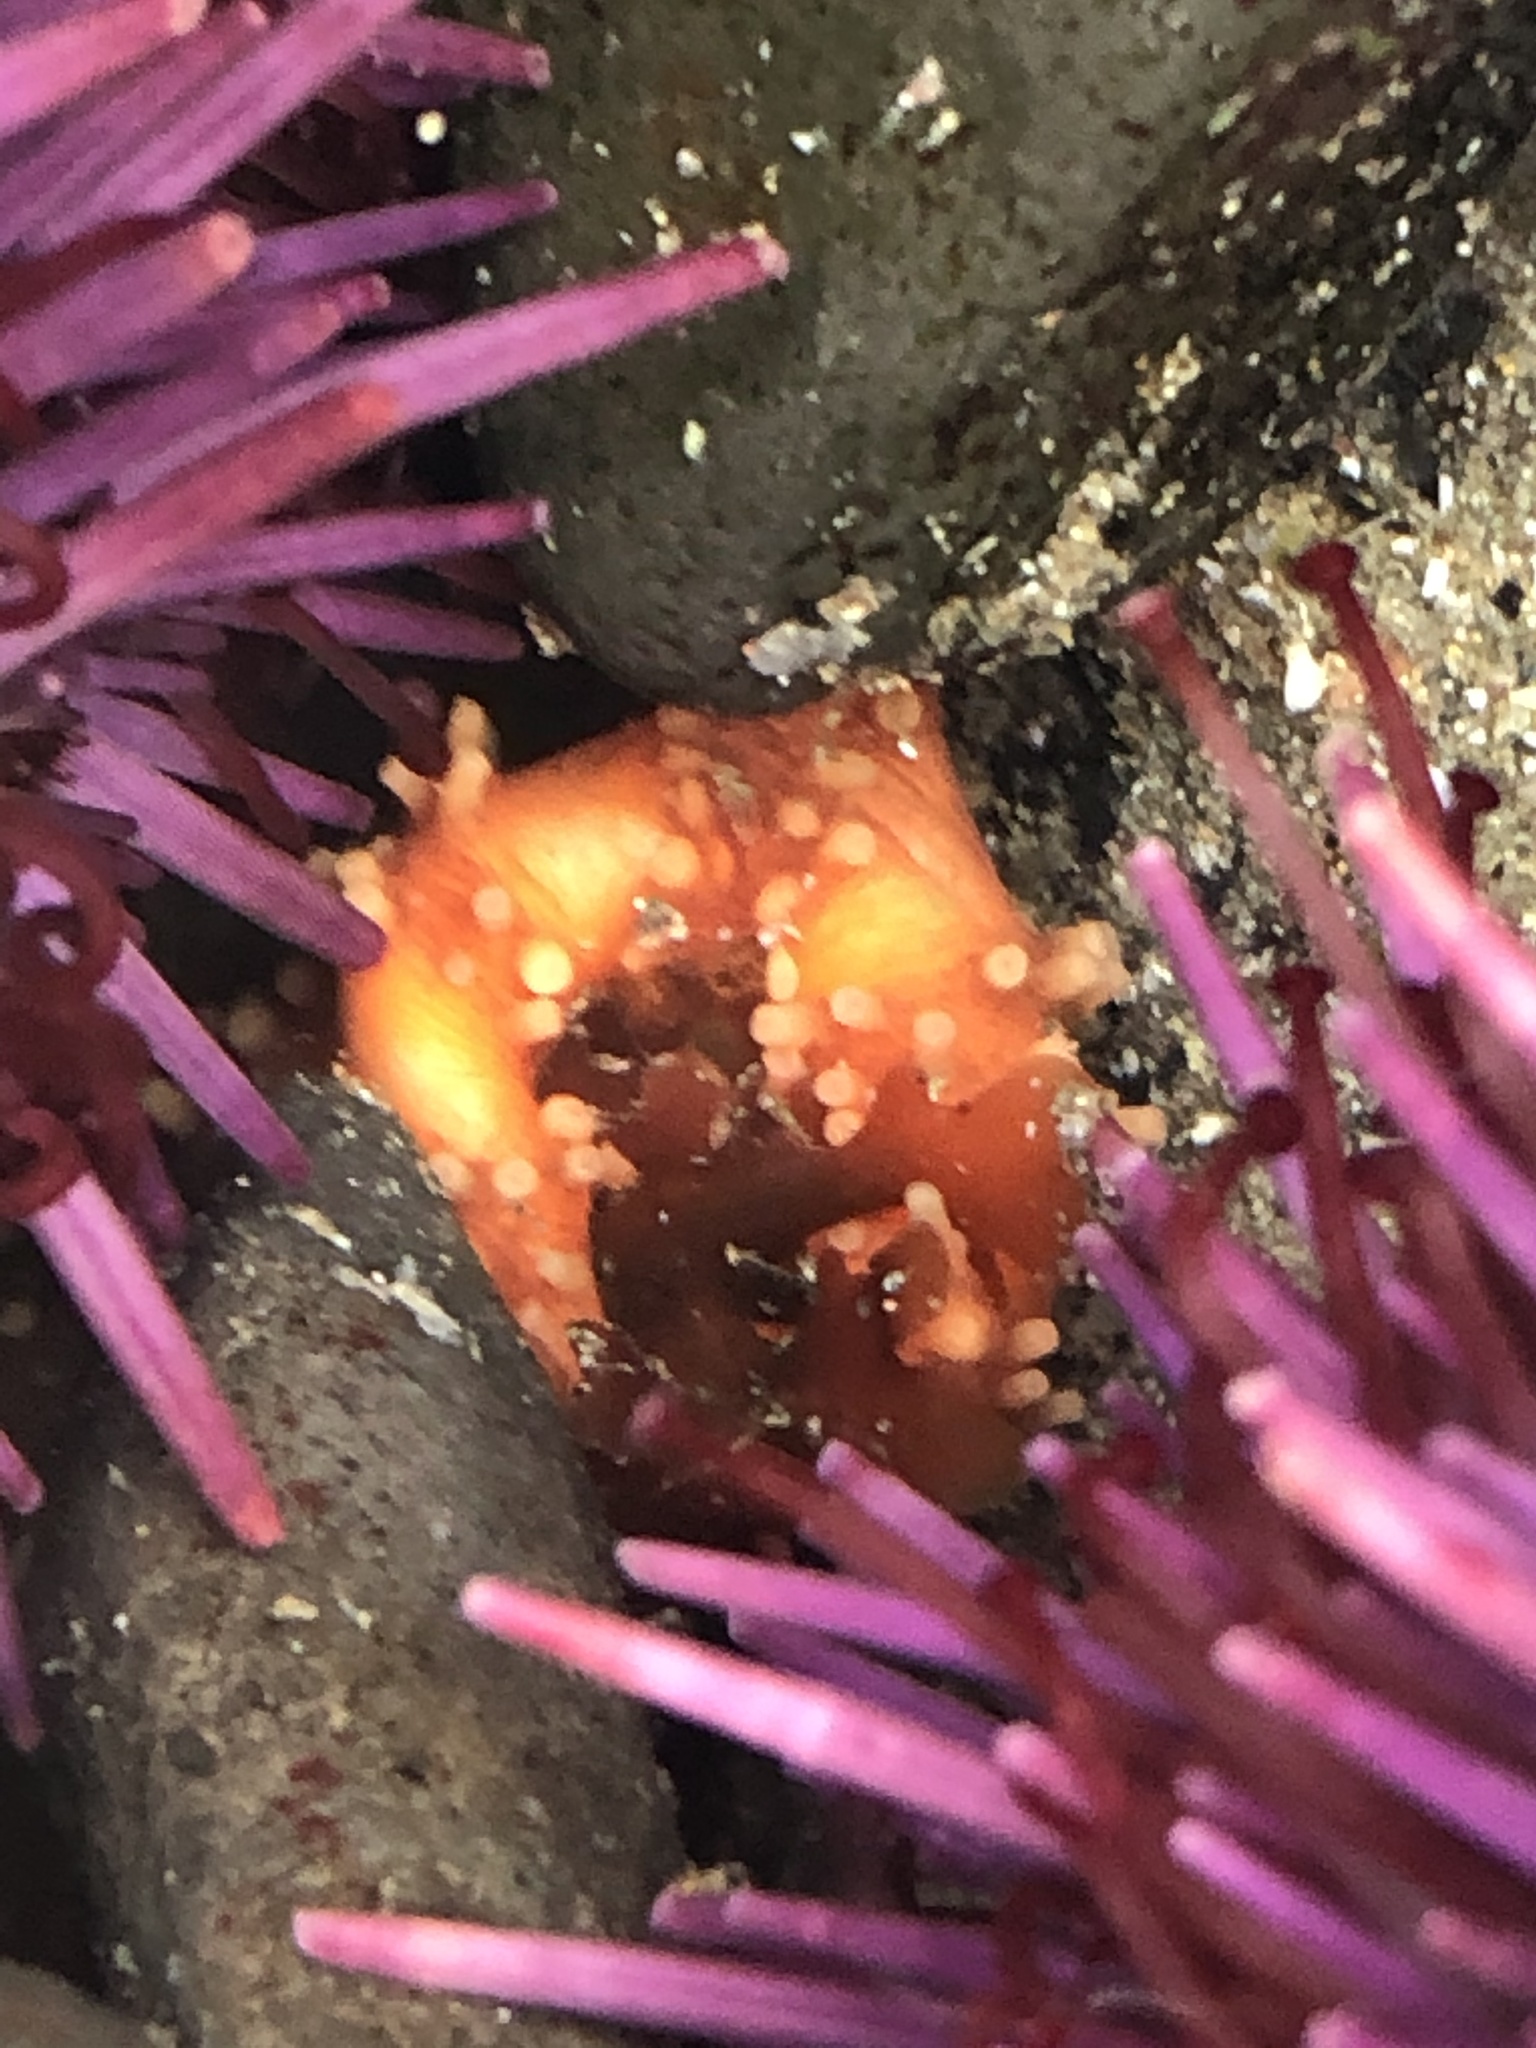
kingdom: Animalia
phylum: Echinodermata
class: Holothuroidea
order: Dendrochirotida
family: Cucumariidae
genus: Cucumaria
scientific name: Cucumaria miniata
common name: Orange sea cucumber
